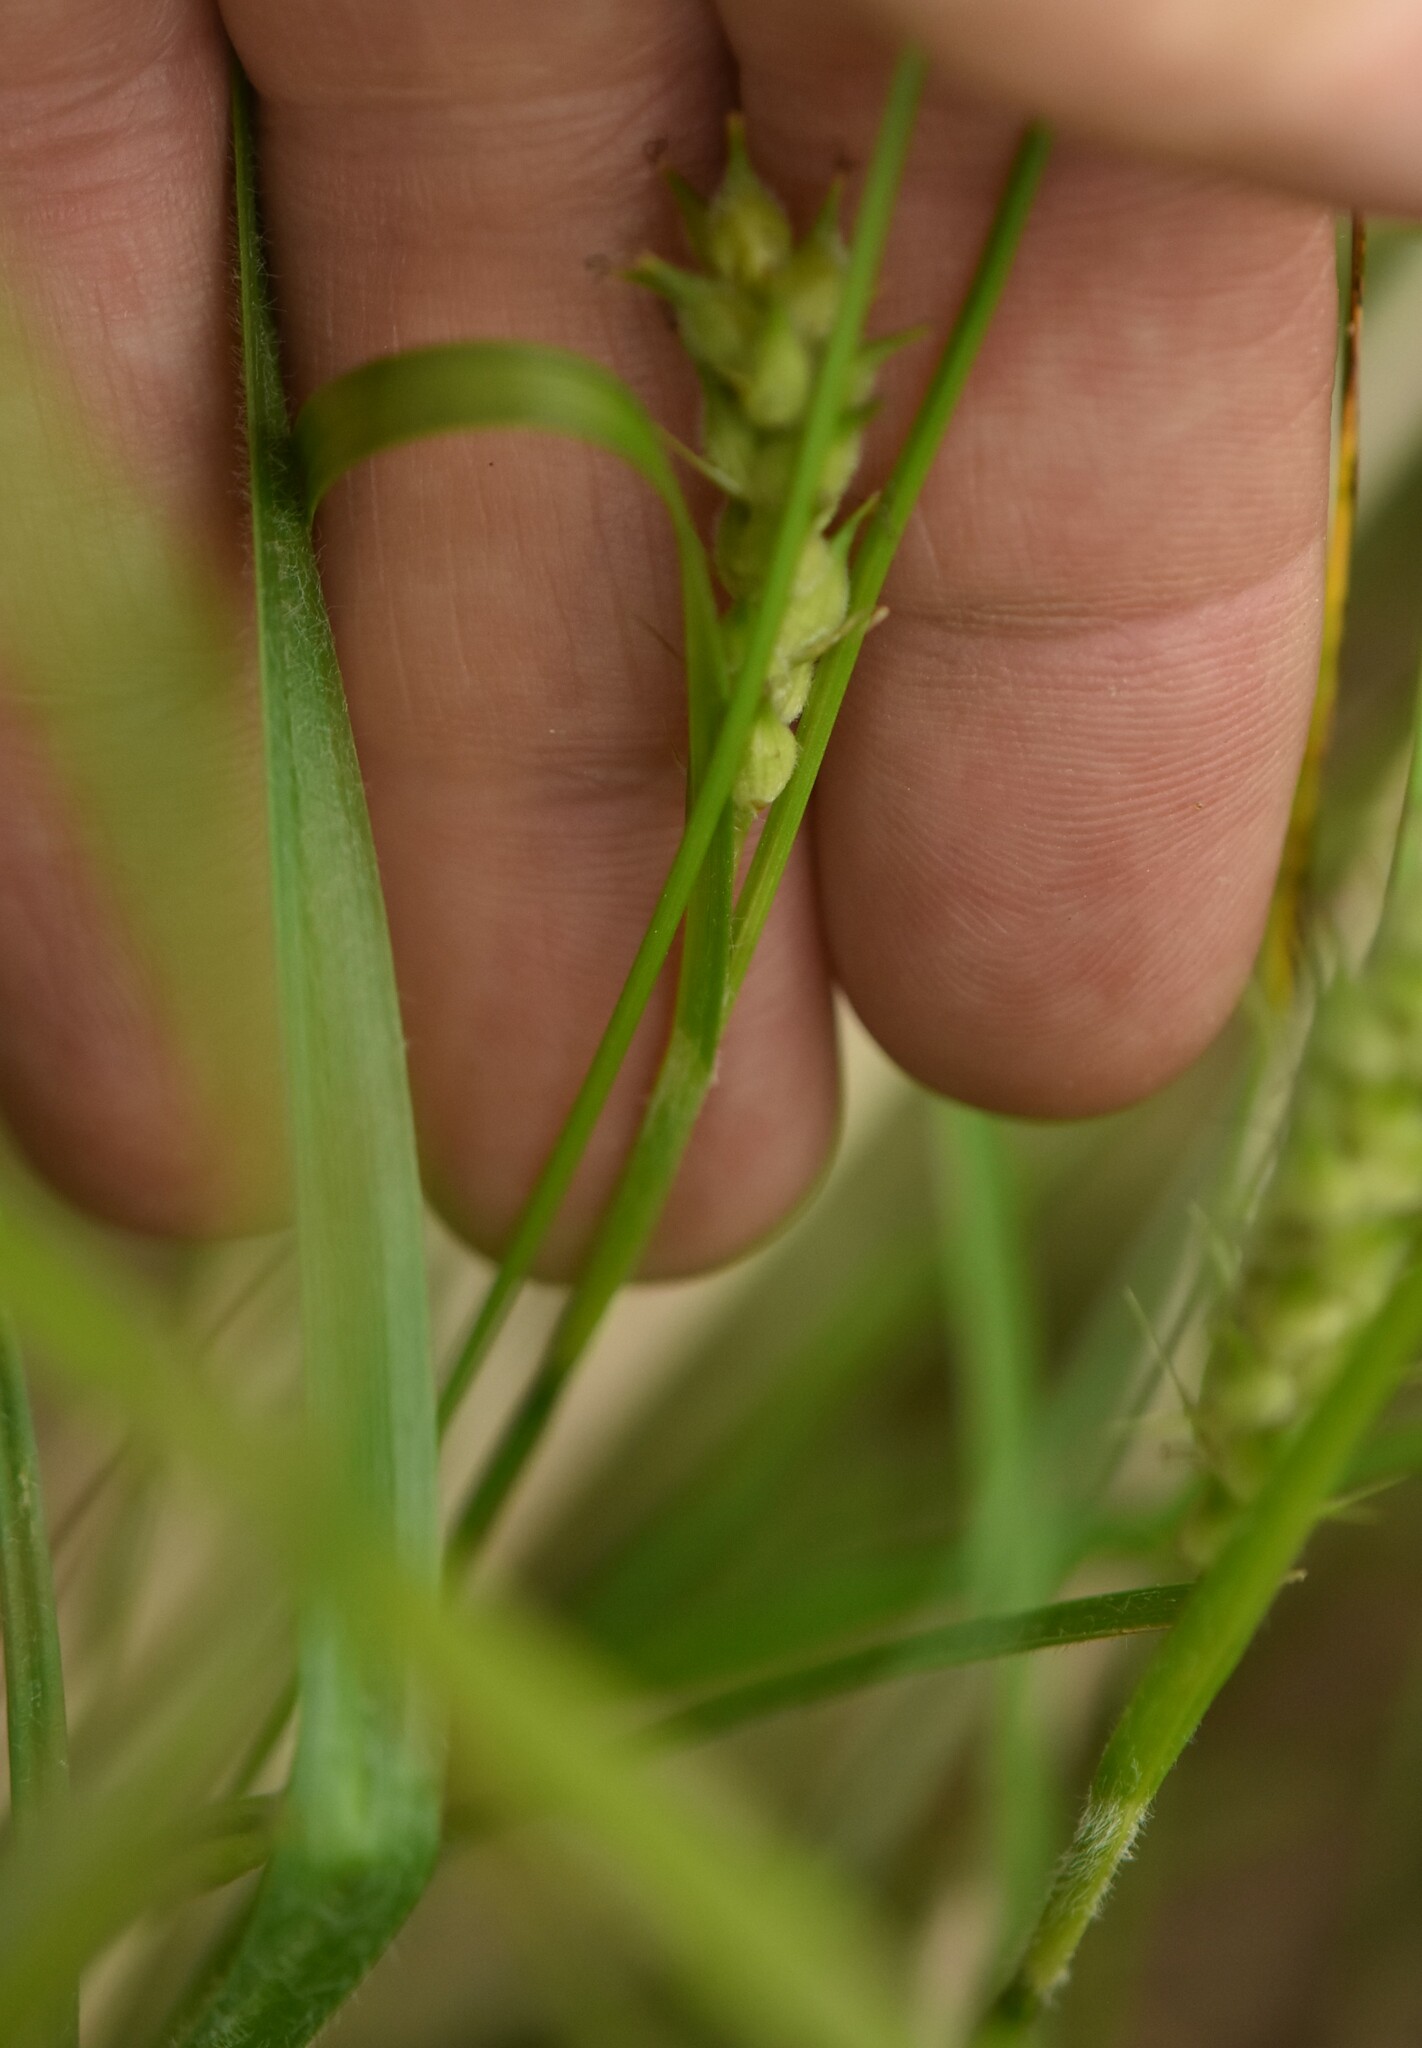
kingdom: Plantae
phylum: Tracheophyta
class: Liliopsida
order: Poales
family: Cyperaceae
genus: Carex
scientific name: Carex hirta
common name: Hairy sedge
